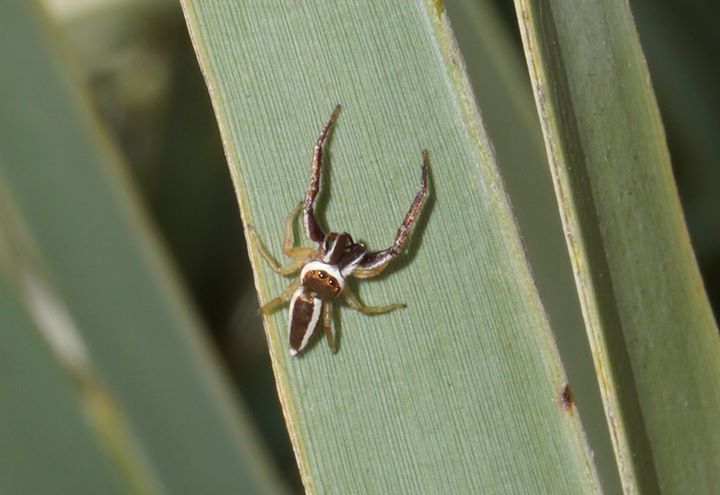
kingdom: Animalia
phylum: Arthropoda
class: Arachnida
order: Araneae
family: Salticidae
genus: Hentzia
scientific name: Hentzia palmarum
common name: Common hentz jumping spider
